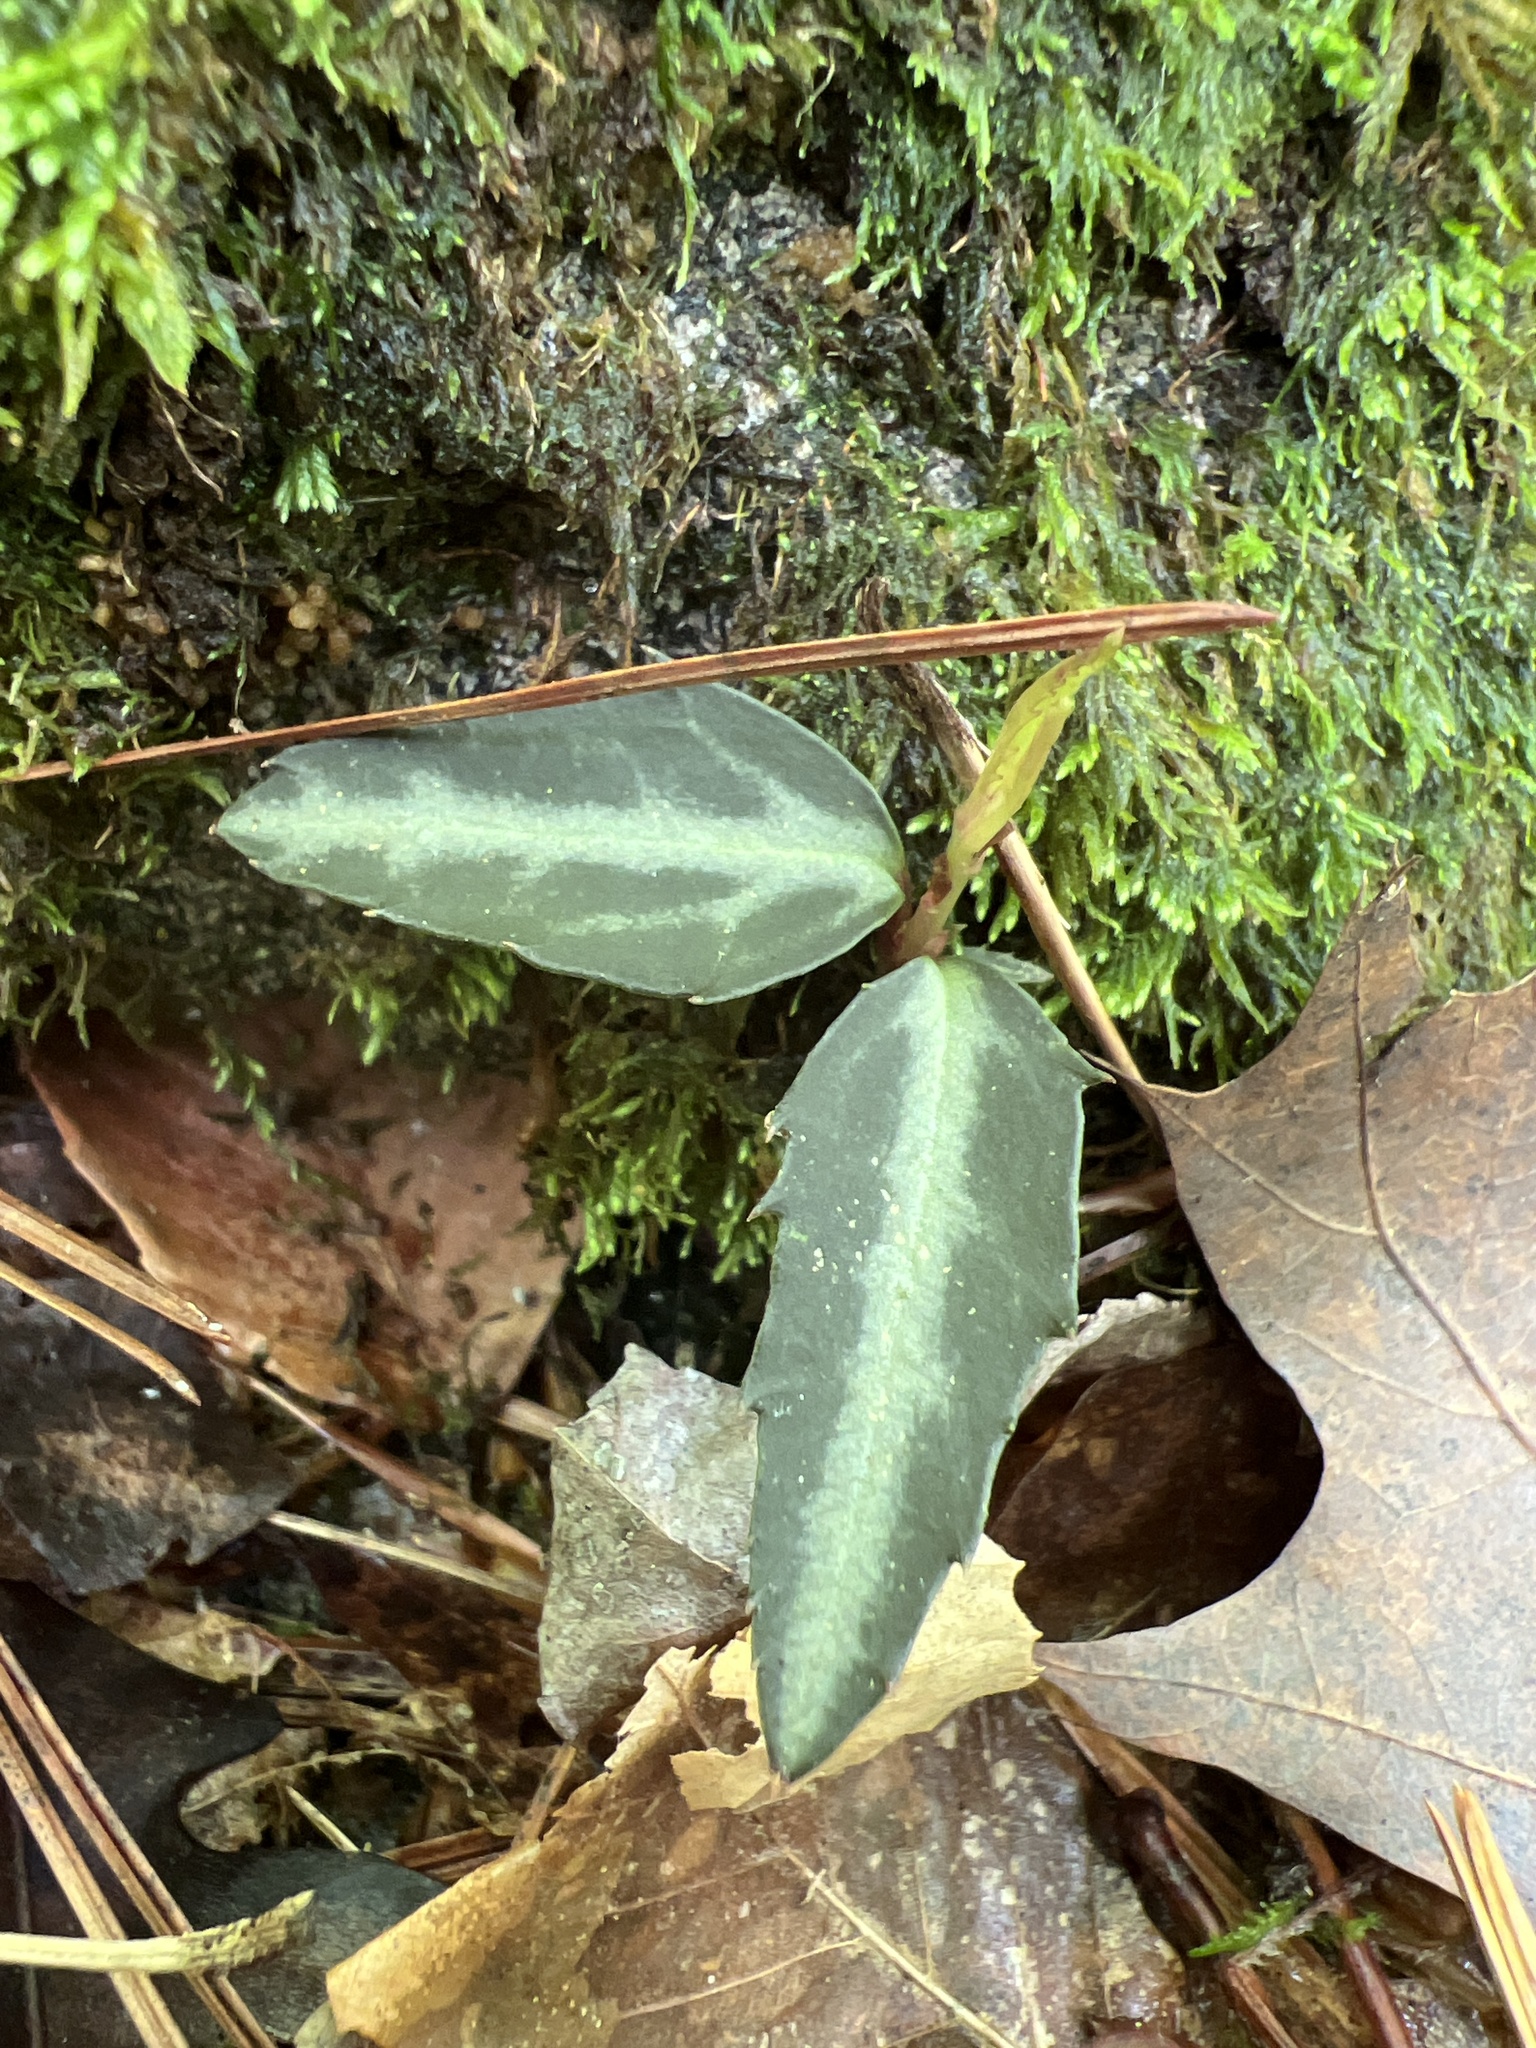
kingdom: Plantae
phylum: Tracheophyta
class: Magnoliopsida
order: Ericales
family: Ericaceae
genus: Chimaphila
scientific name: Chimaphila maculata
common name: Spotted pipsissewa
